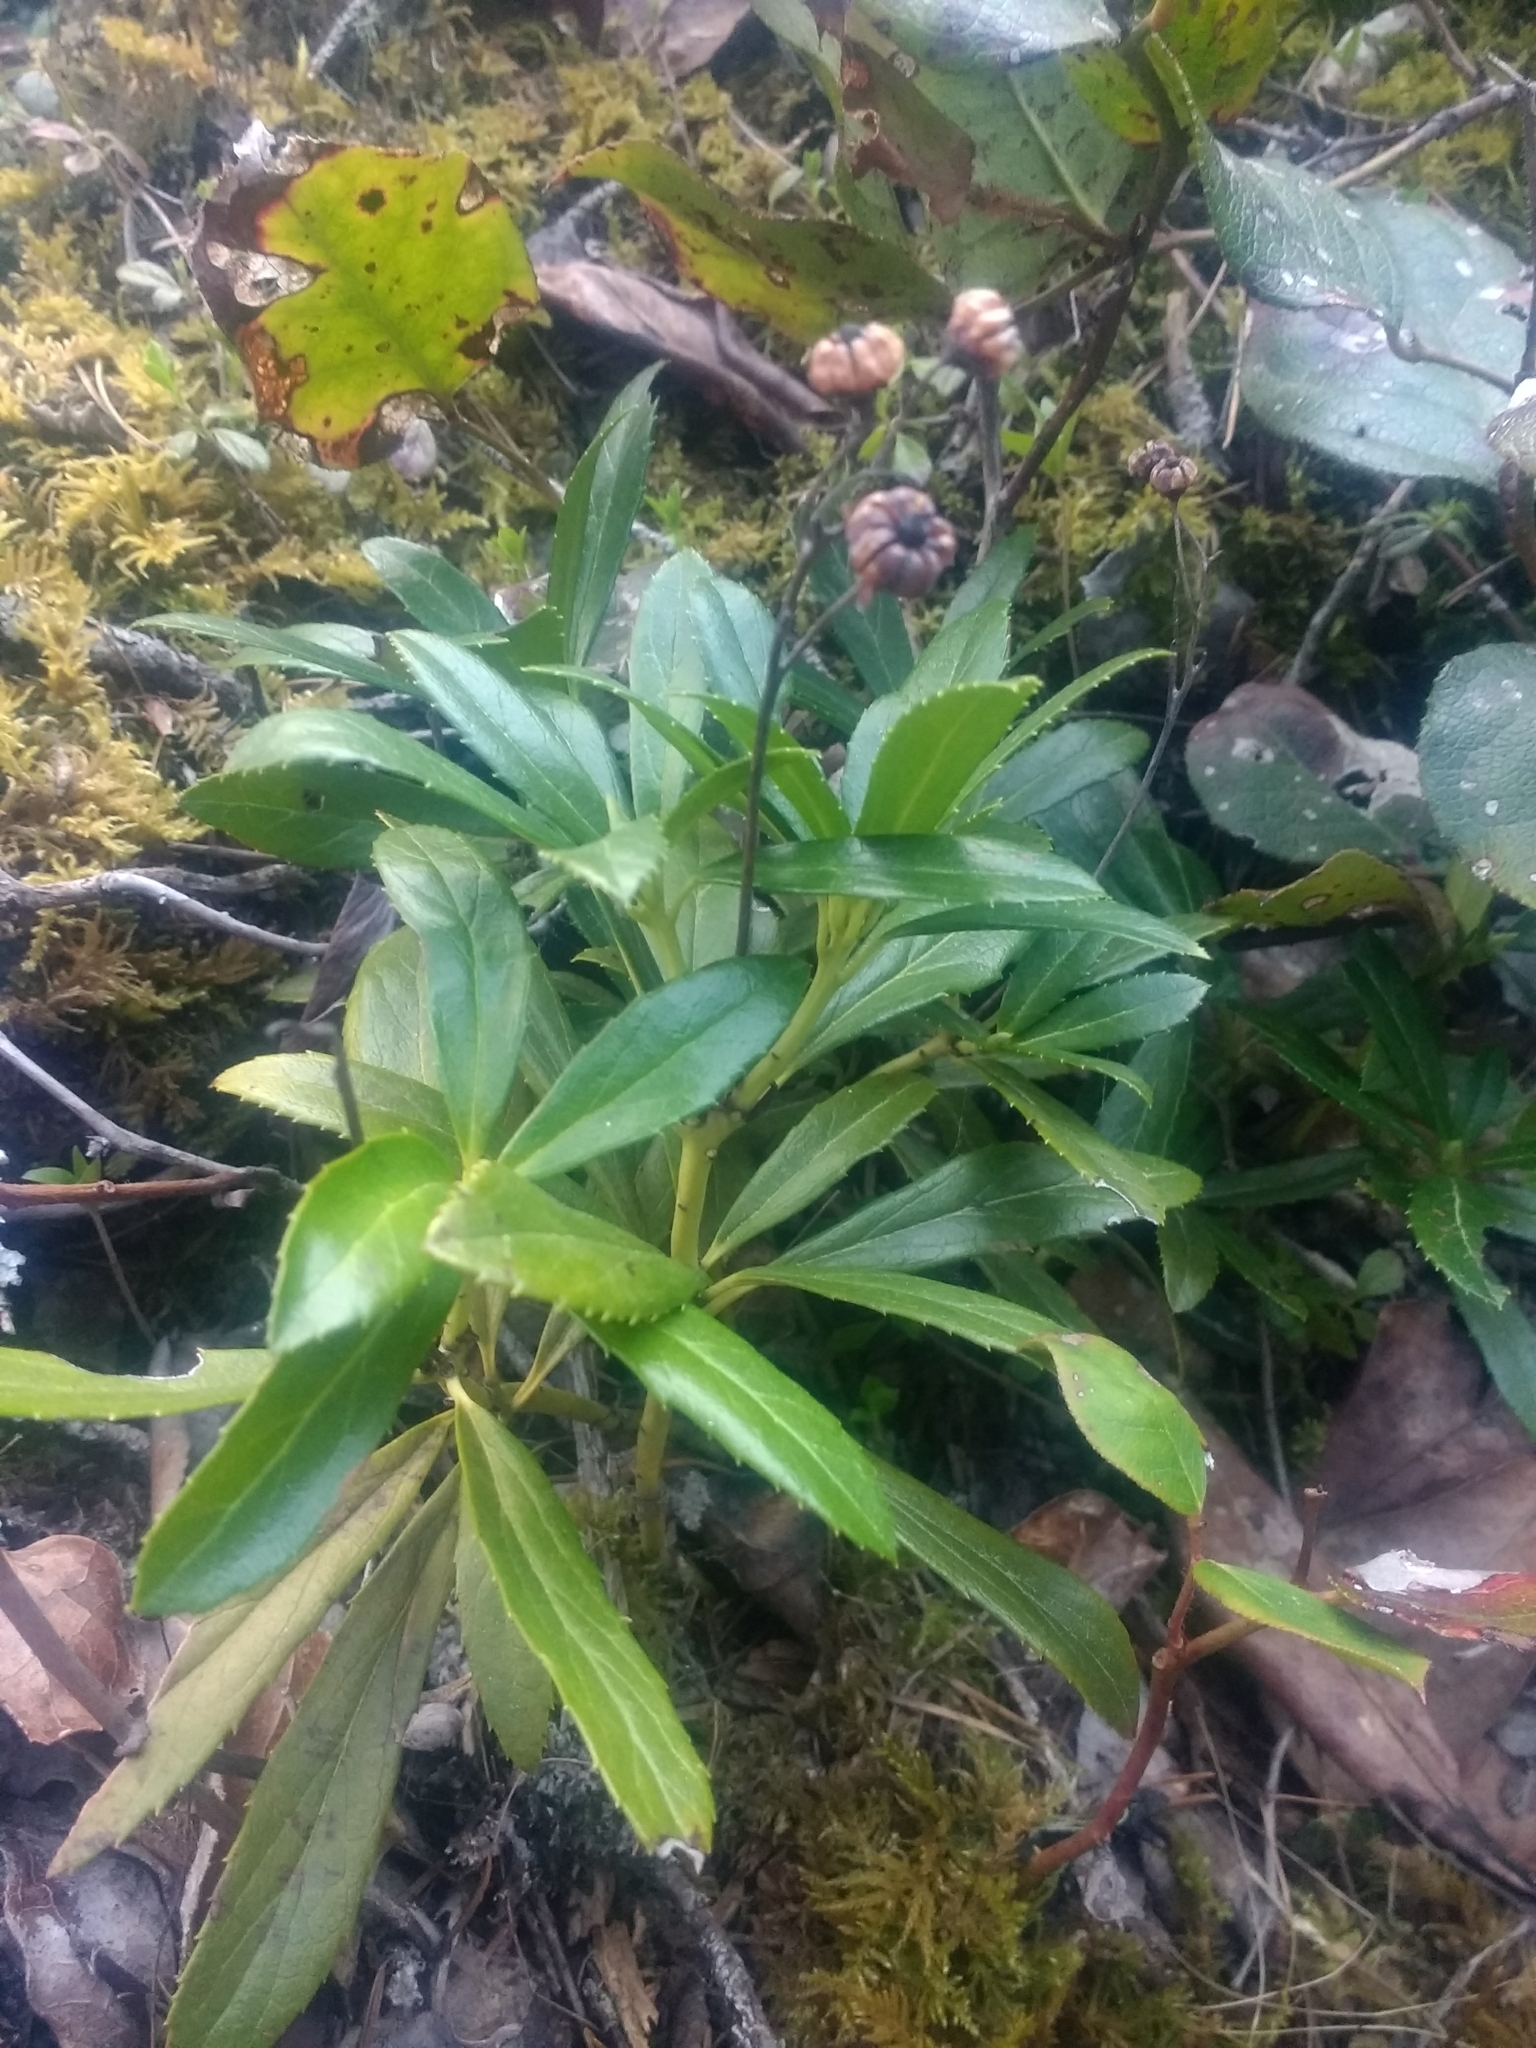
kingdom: Plantae
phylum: Tracheophyta
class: Magnoliopsida
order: Ericales
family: Ericaceae
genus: Chimaphila
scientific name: Chimaphila umbellata
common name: Pipsissewa
